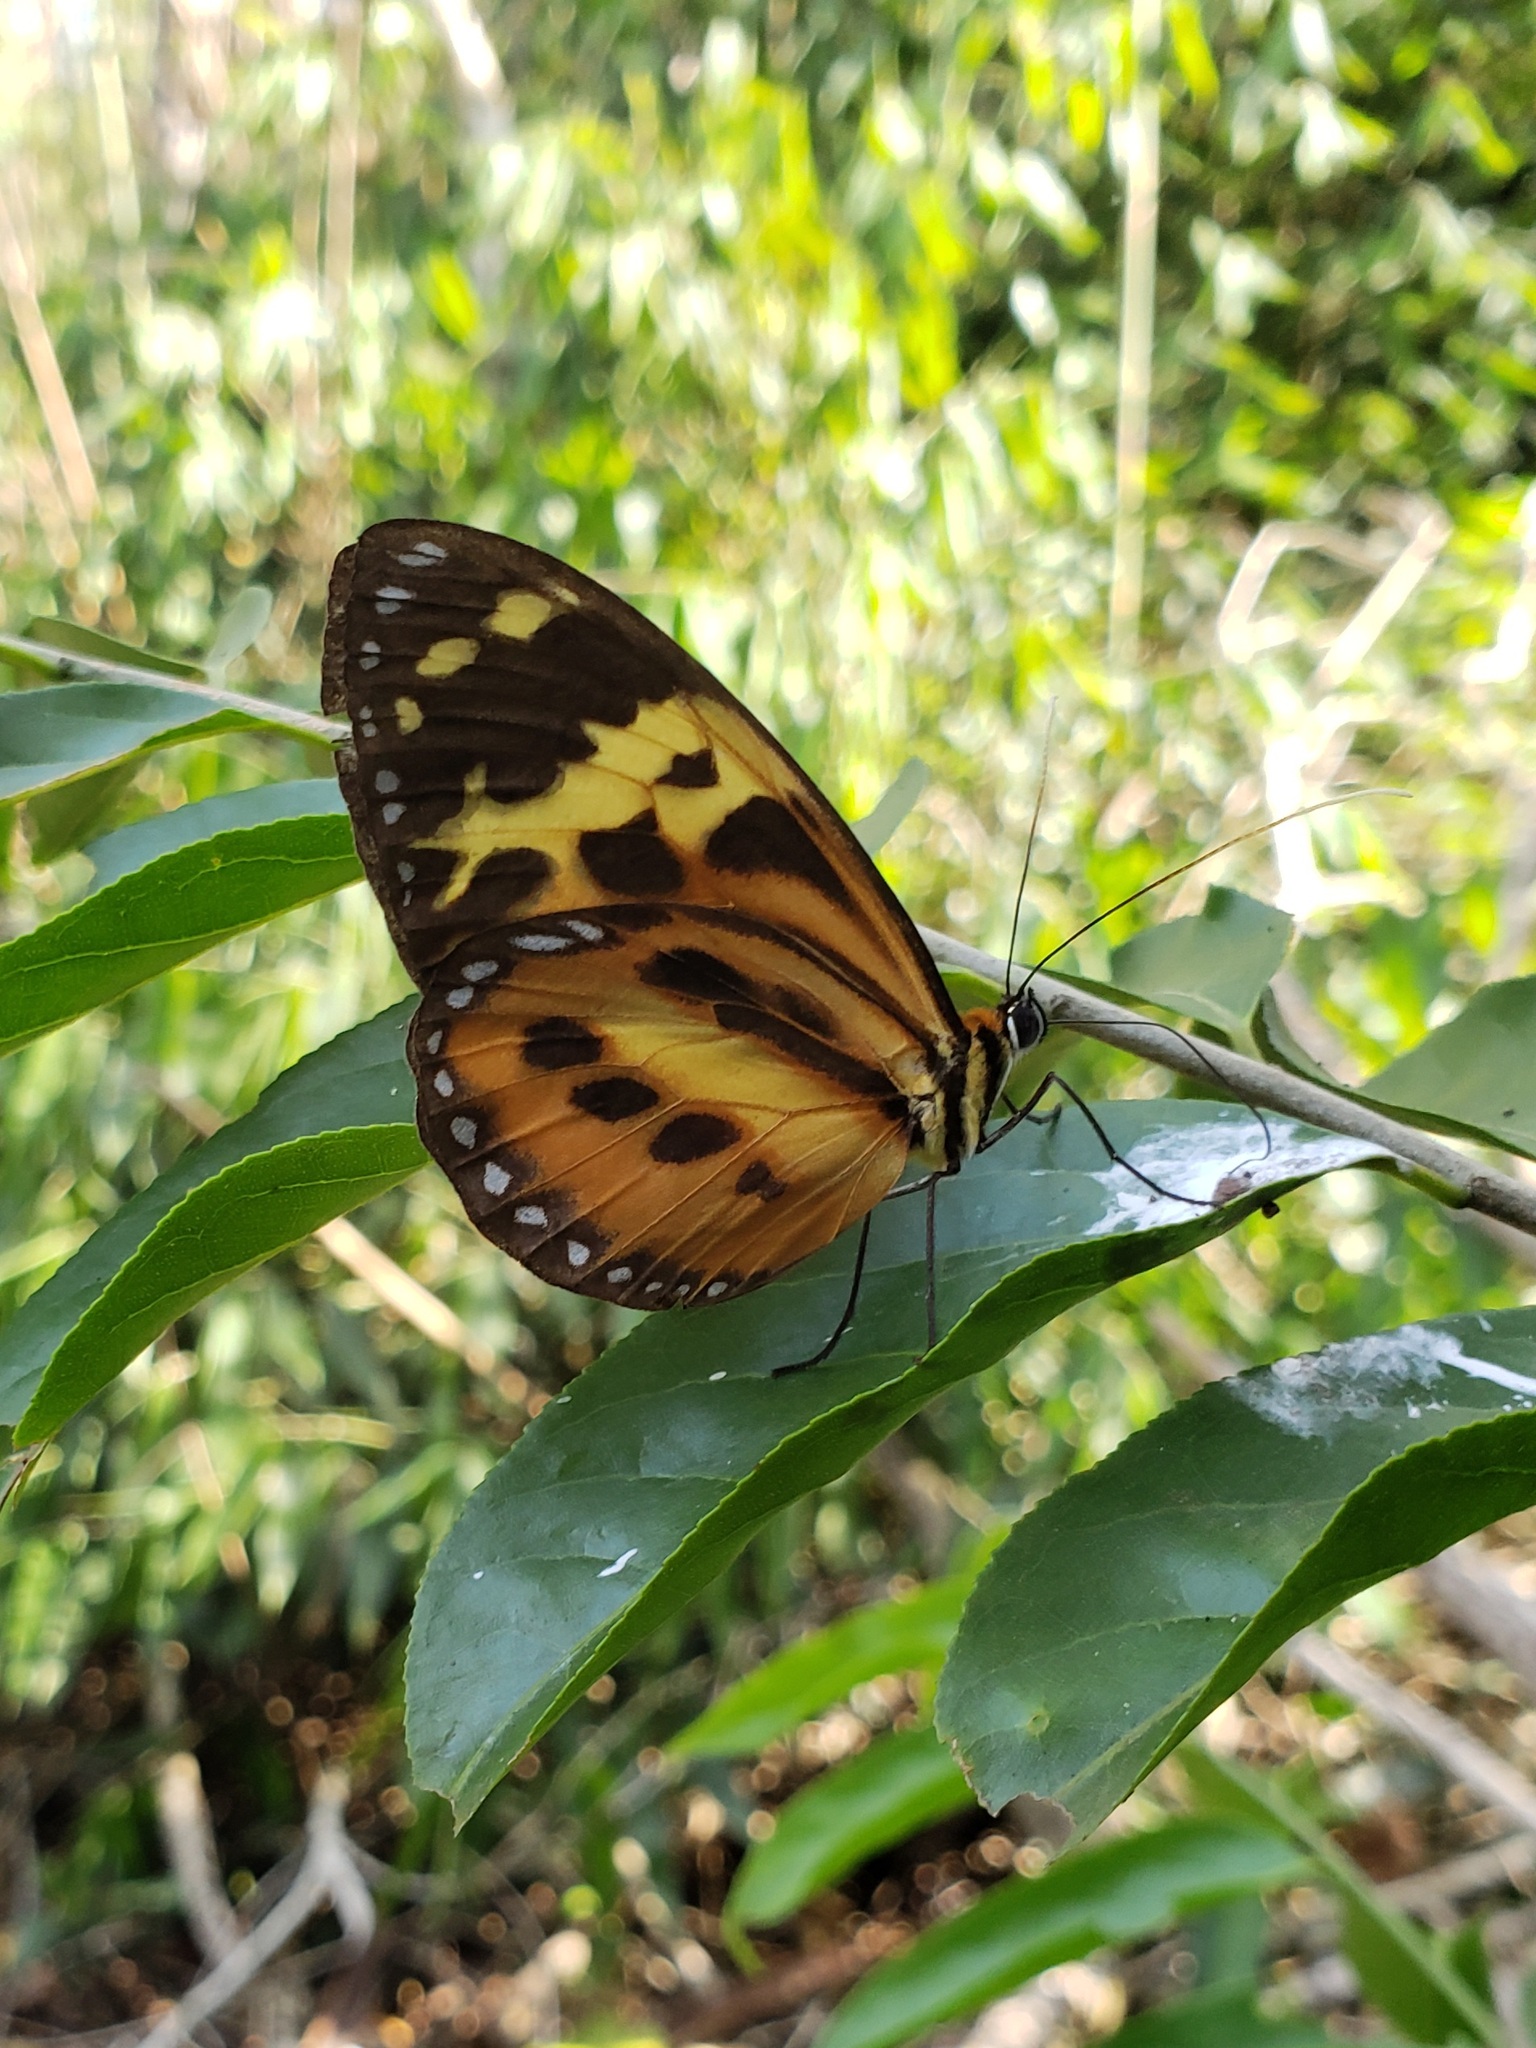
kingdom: Animalia
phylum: Arthropoda
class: Insecta
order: Lepidoptera
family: Nymphalidae
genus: Tithorea
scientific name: Tithorea harmonia
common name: Harmonia tigerwing
